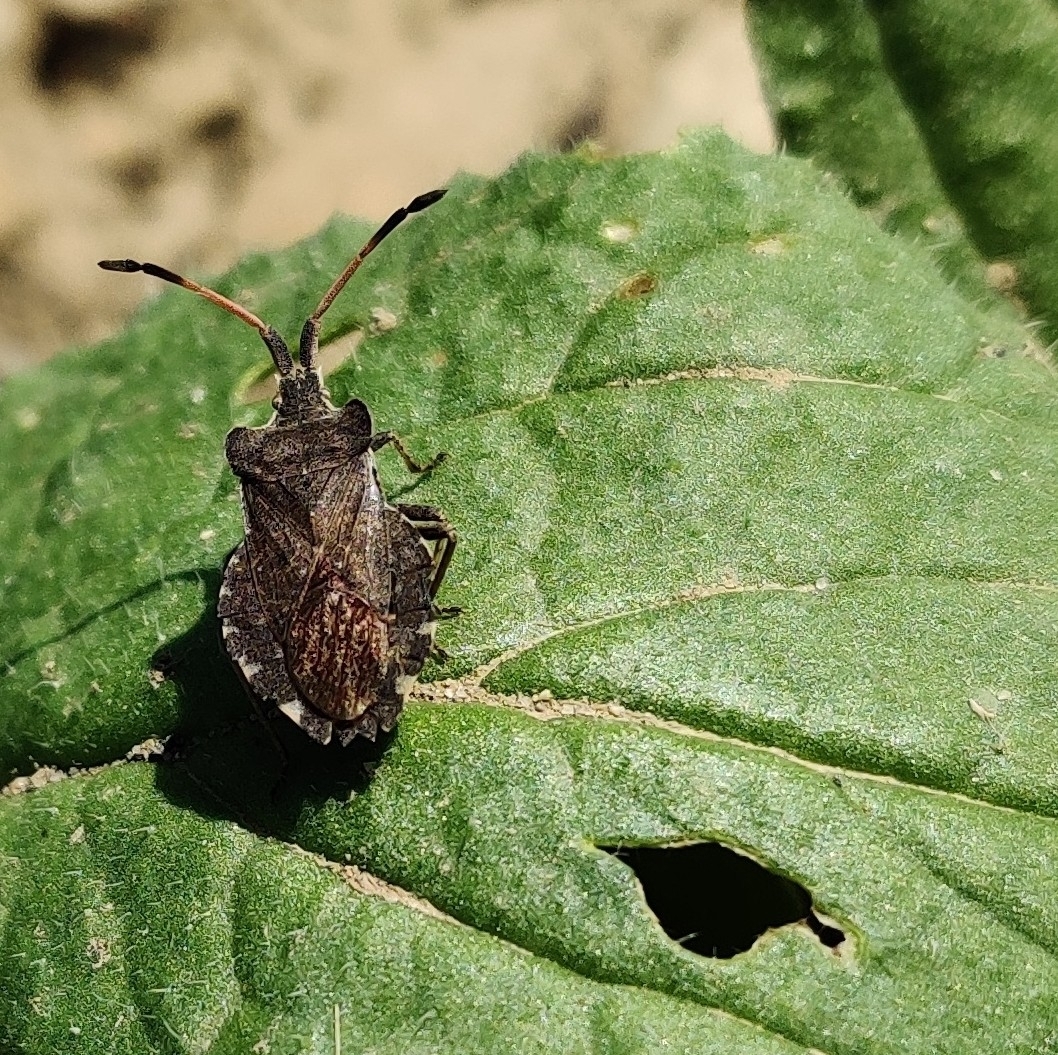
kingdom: Animalia
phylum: Arthropoda
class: Insecta
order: Hemiptera
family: Coreidae
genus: Enoplops
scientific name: Enoplops scapha
